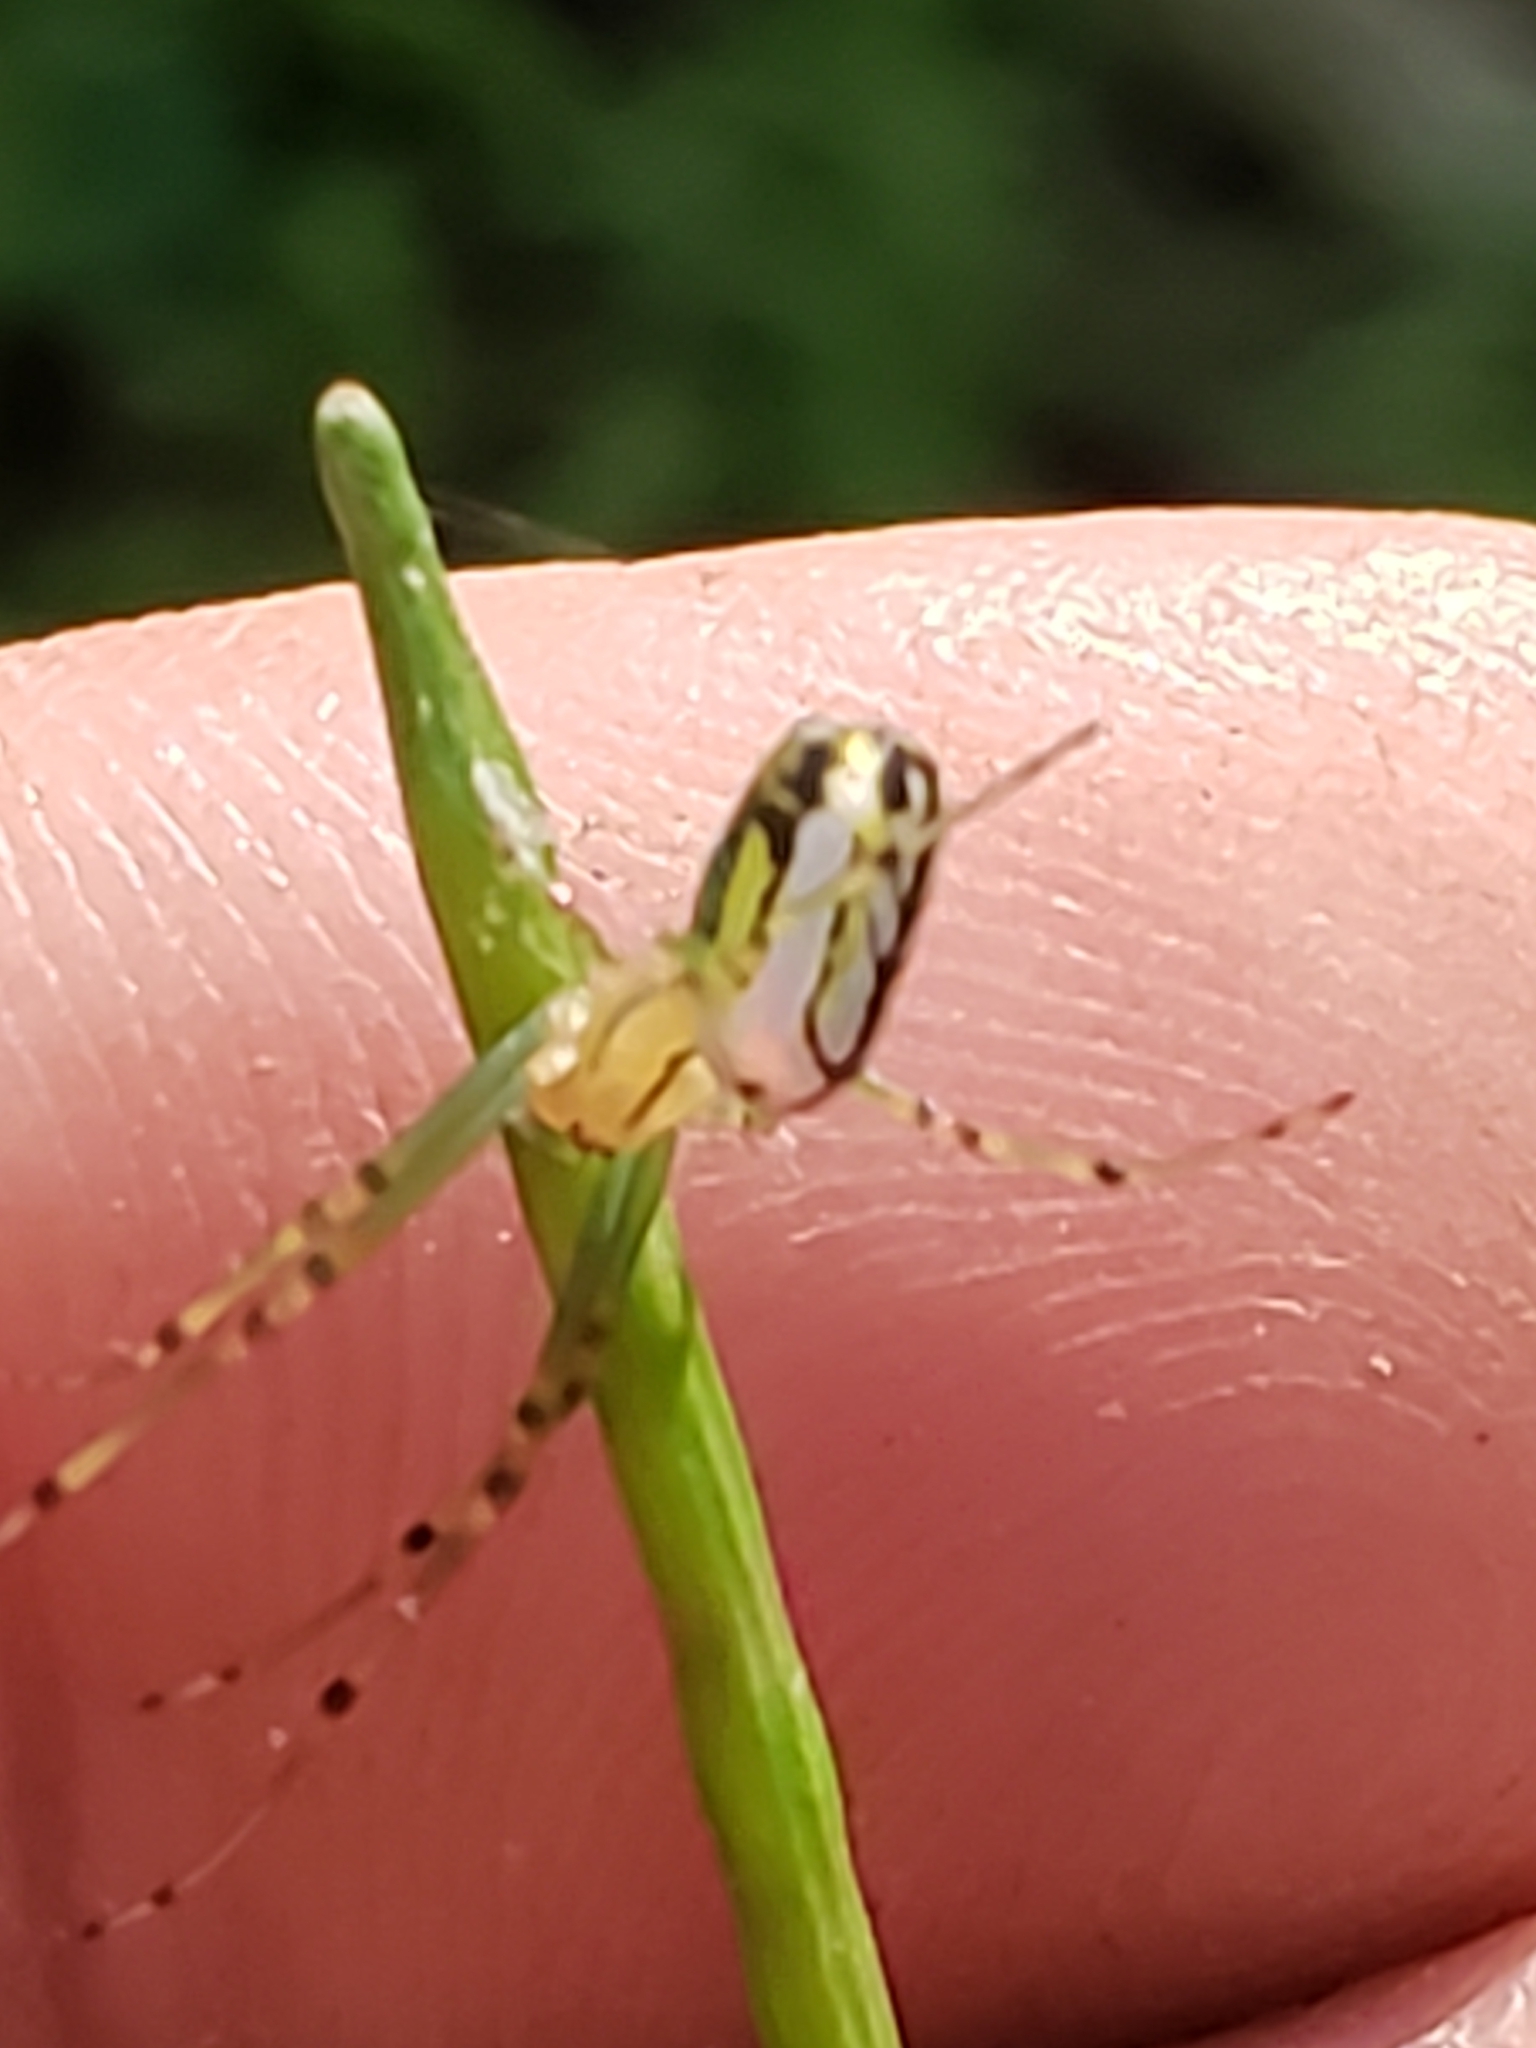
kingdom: Animalia
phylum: Arthropoda
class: Arachnida
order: Araneae
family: Tetragnathidae
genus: Leucauge
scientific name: Leucauge venusta
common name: Longjawed orb weavers
